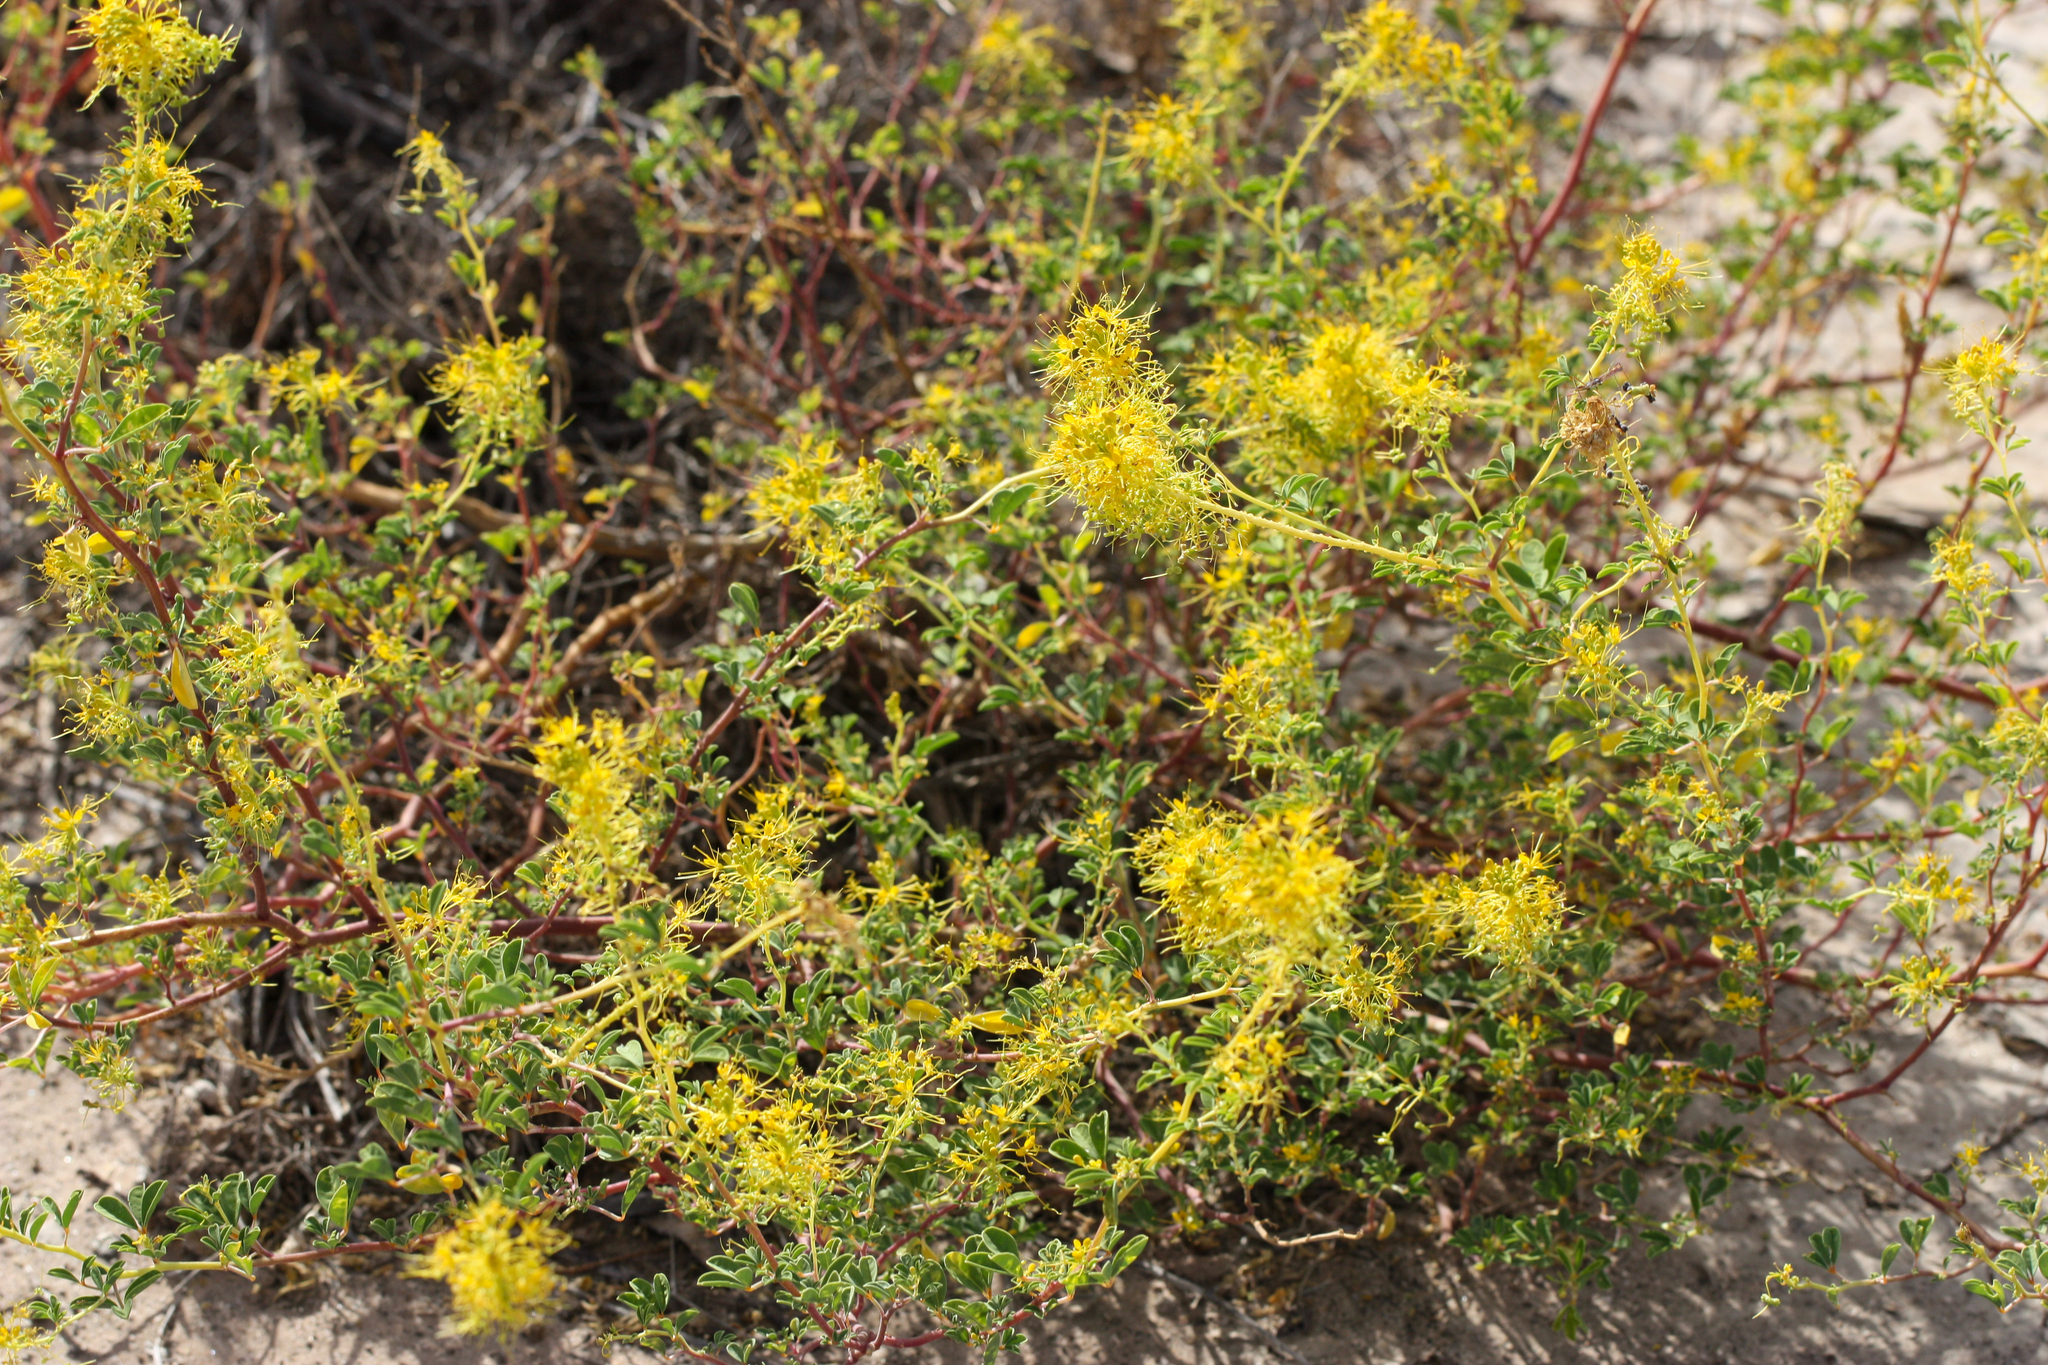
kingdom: Plantae
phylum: Tracheophyta
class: Magnoliopsida
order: Brassicales
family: Cleomaceae
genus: Cleomella
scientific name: Cleomella refracta
